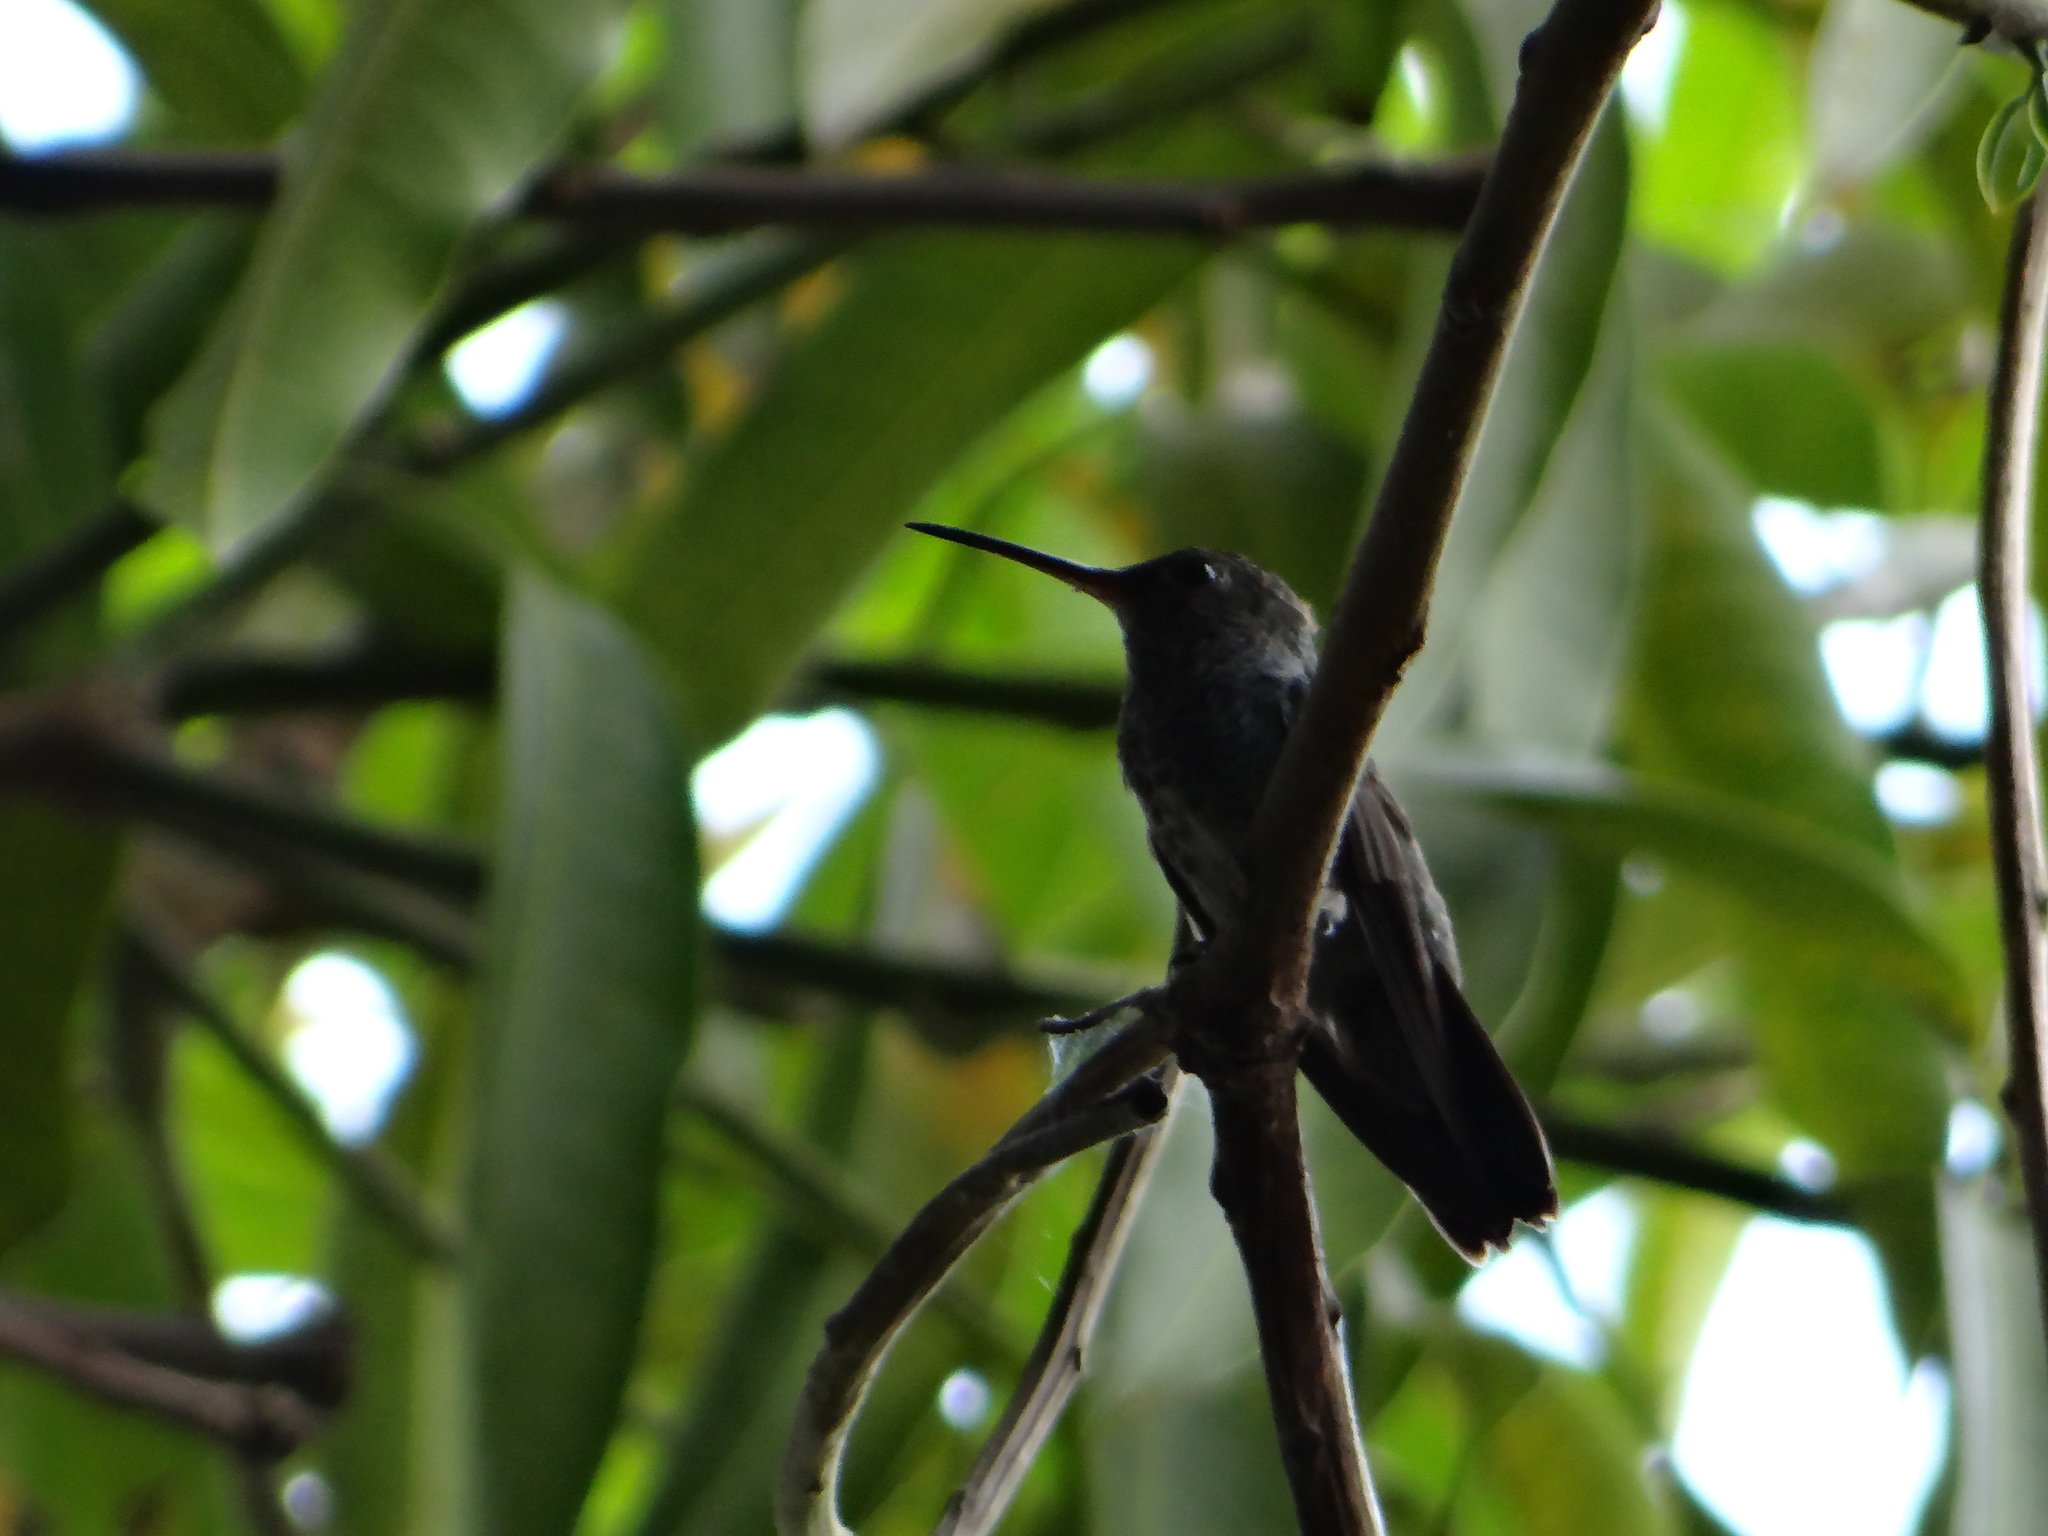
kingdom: Animalia
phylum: Chordata
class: Aves
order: Apodiformes
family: Trochilidae
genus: Chionomesa
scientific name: Chionomesa lactea
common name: Sapphire-spangled emerald
